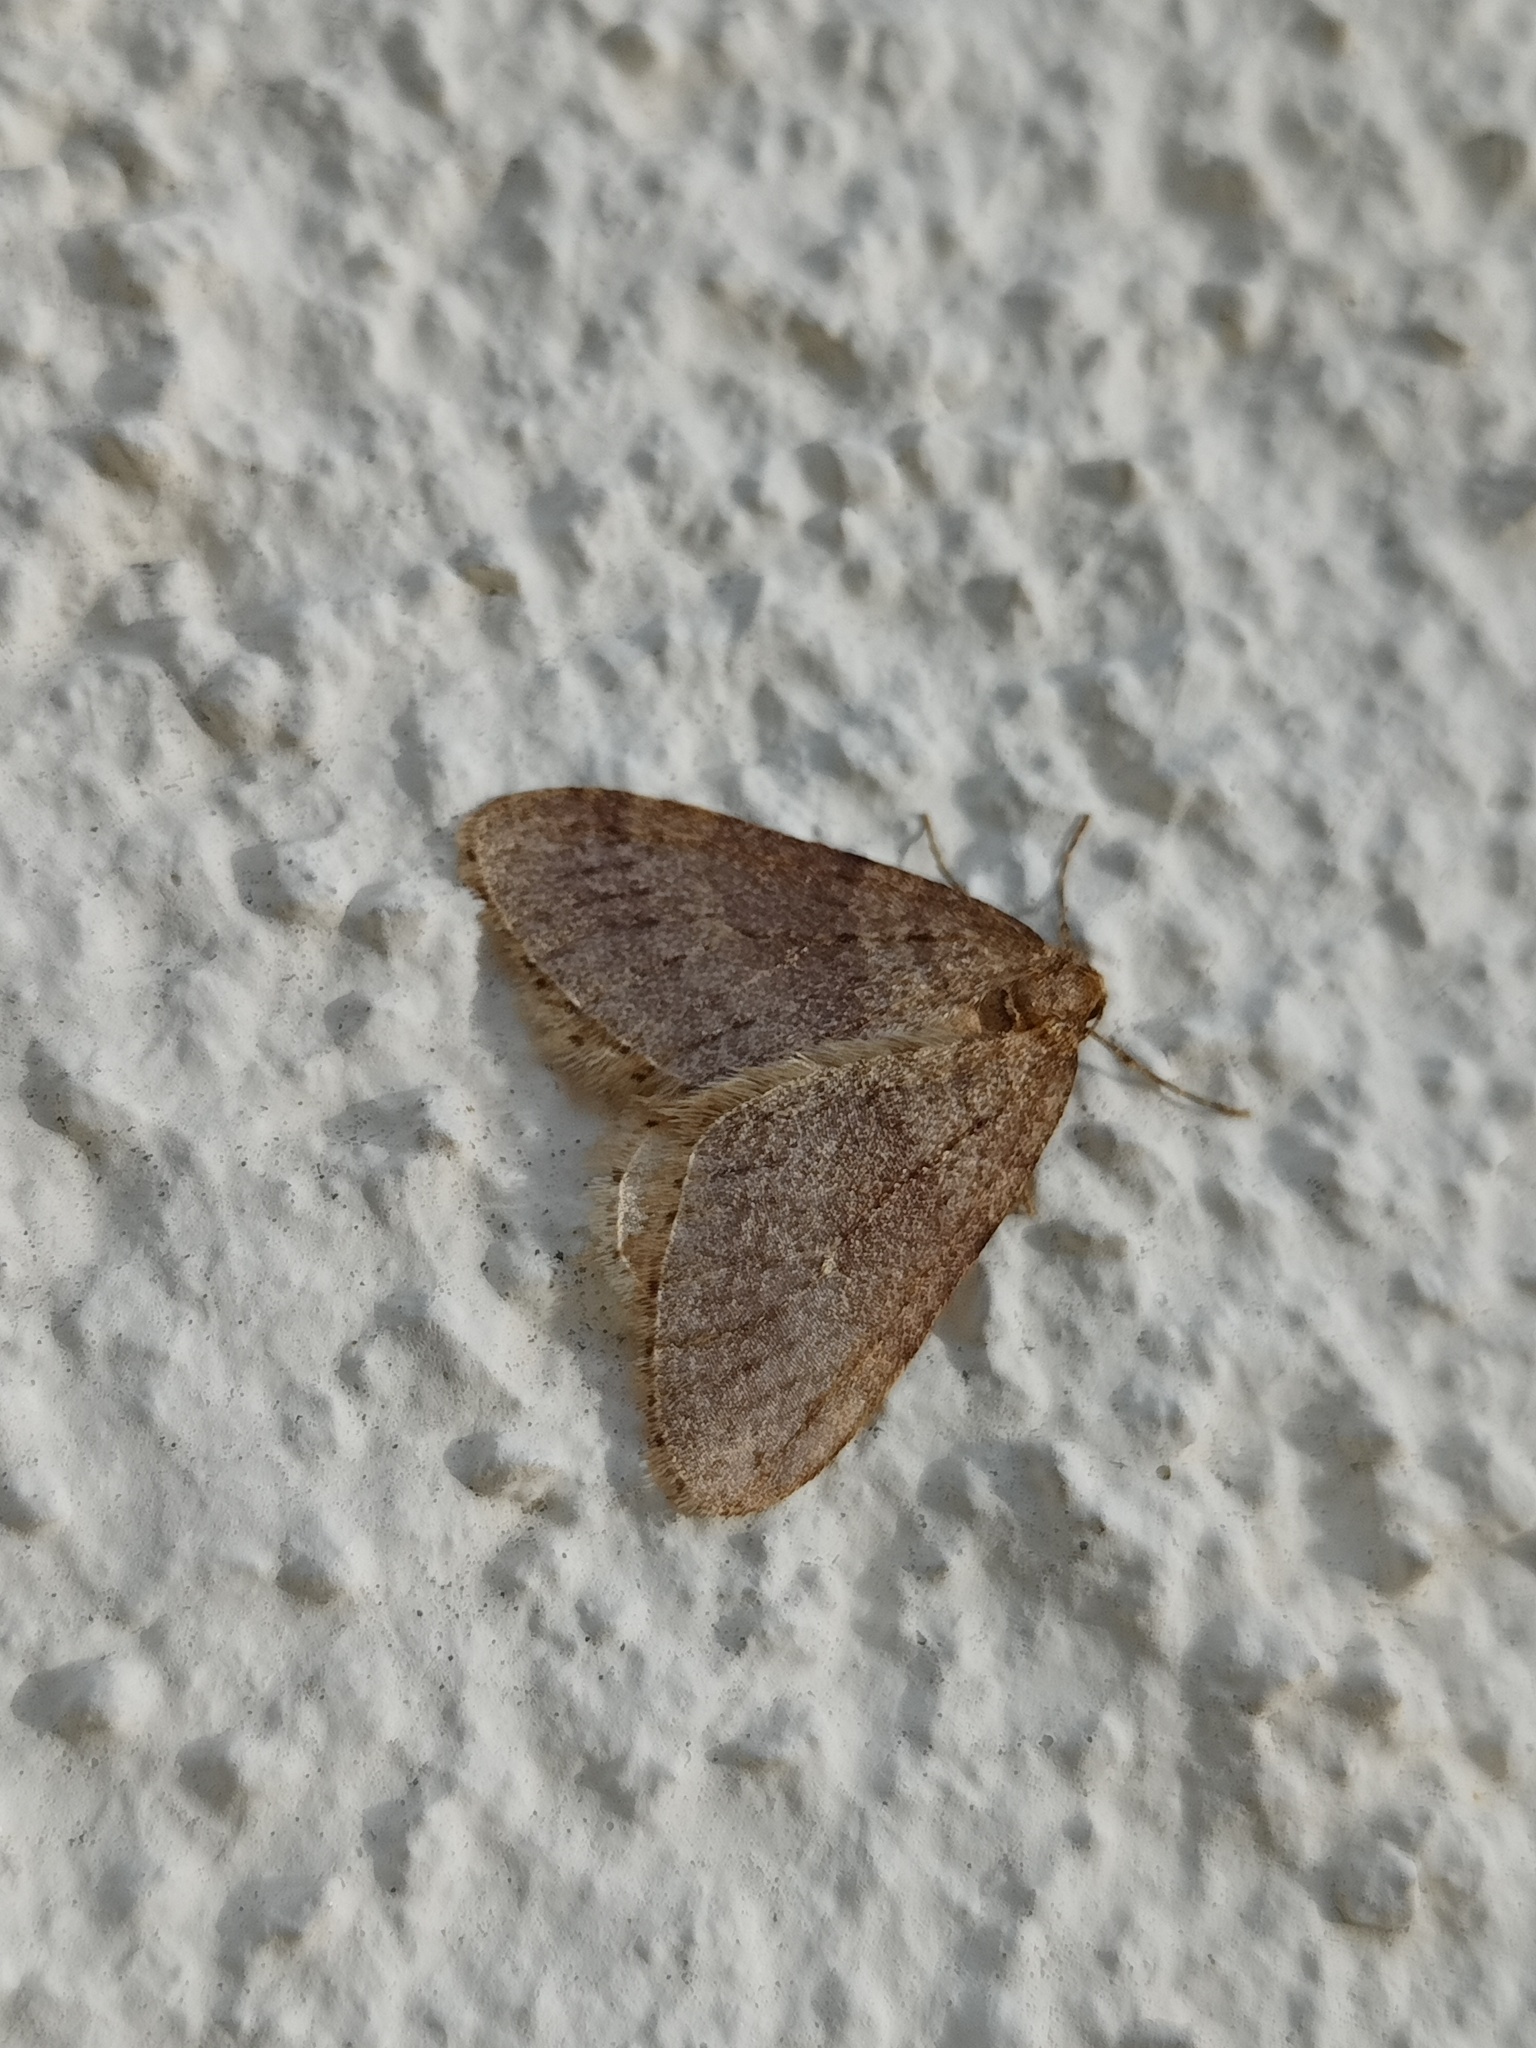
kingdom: Animalia
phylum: Arthropoda
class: Insecta
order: Lepidoptera
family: Geometridae
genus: Operophtera
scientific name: Operophtera brumata
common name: Winter moth
